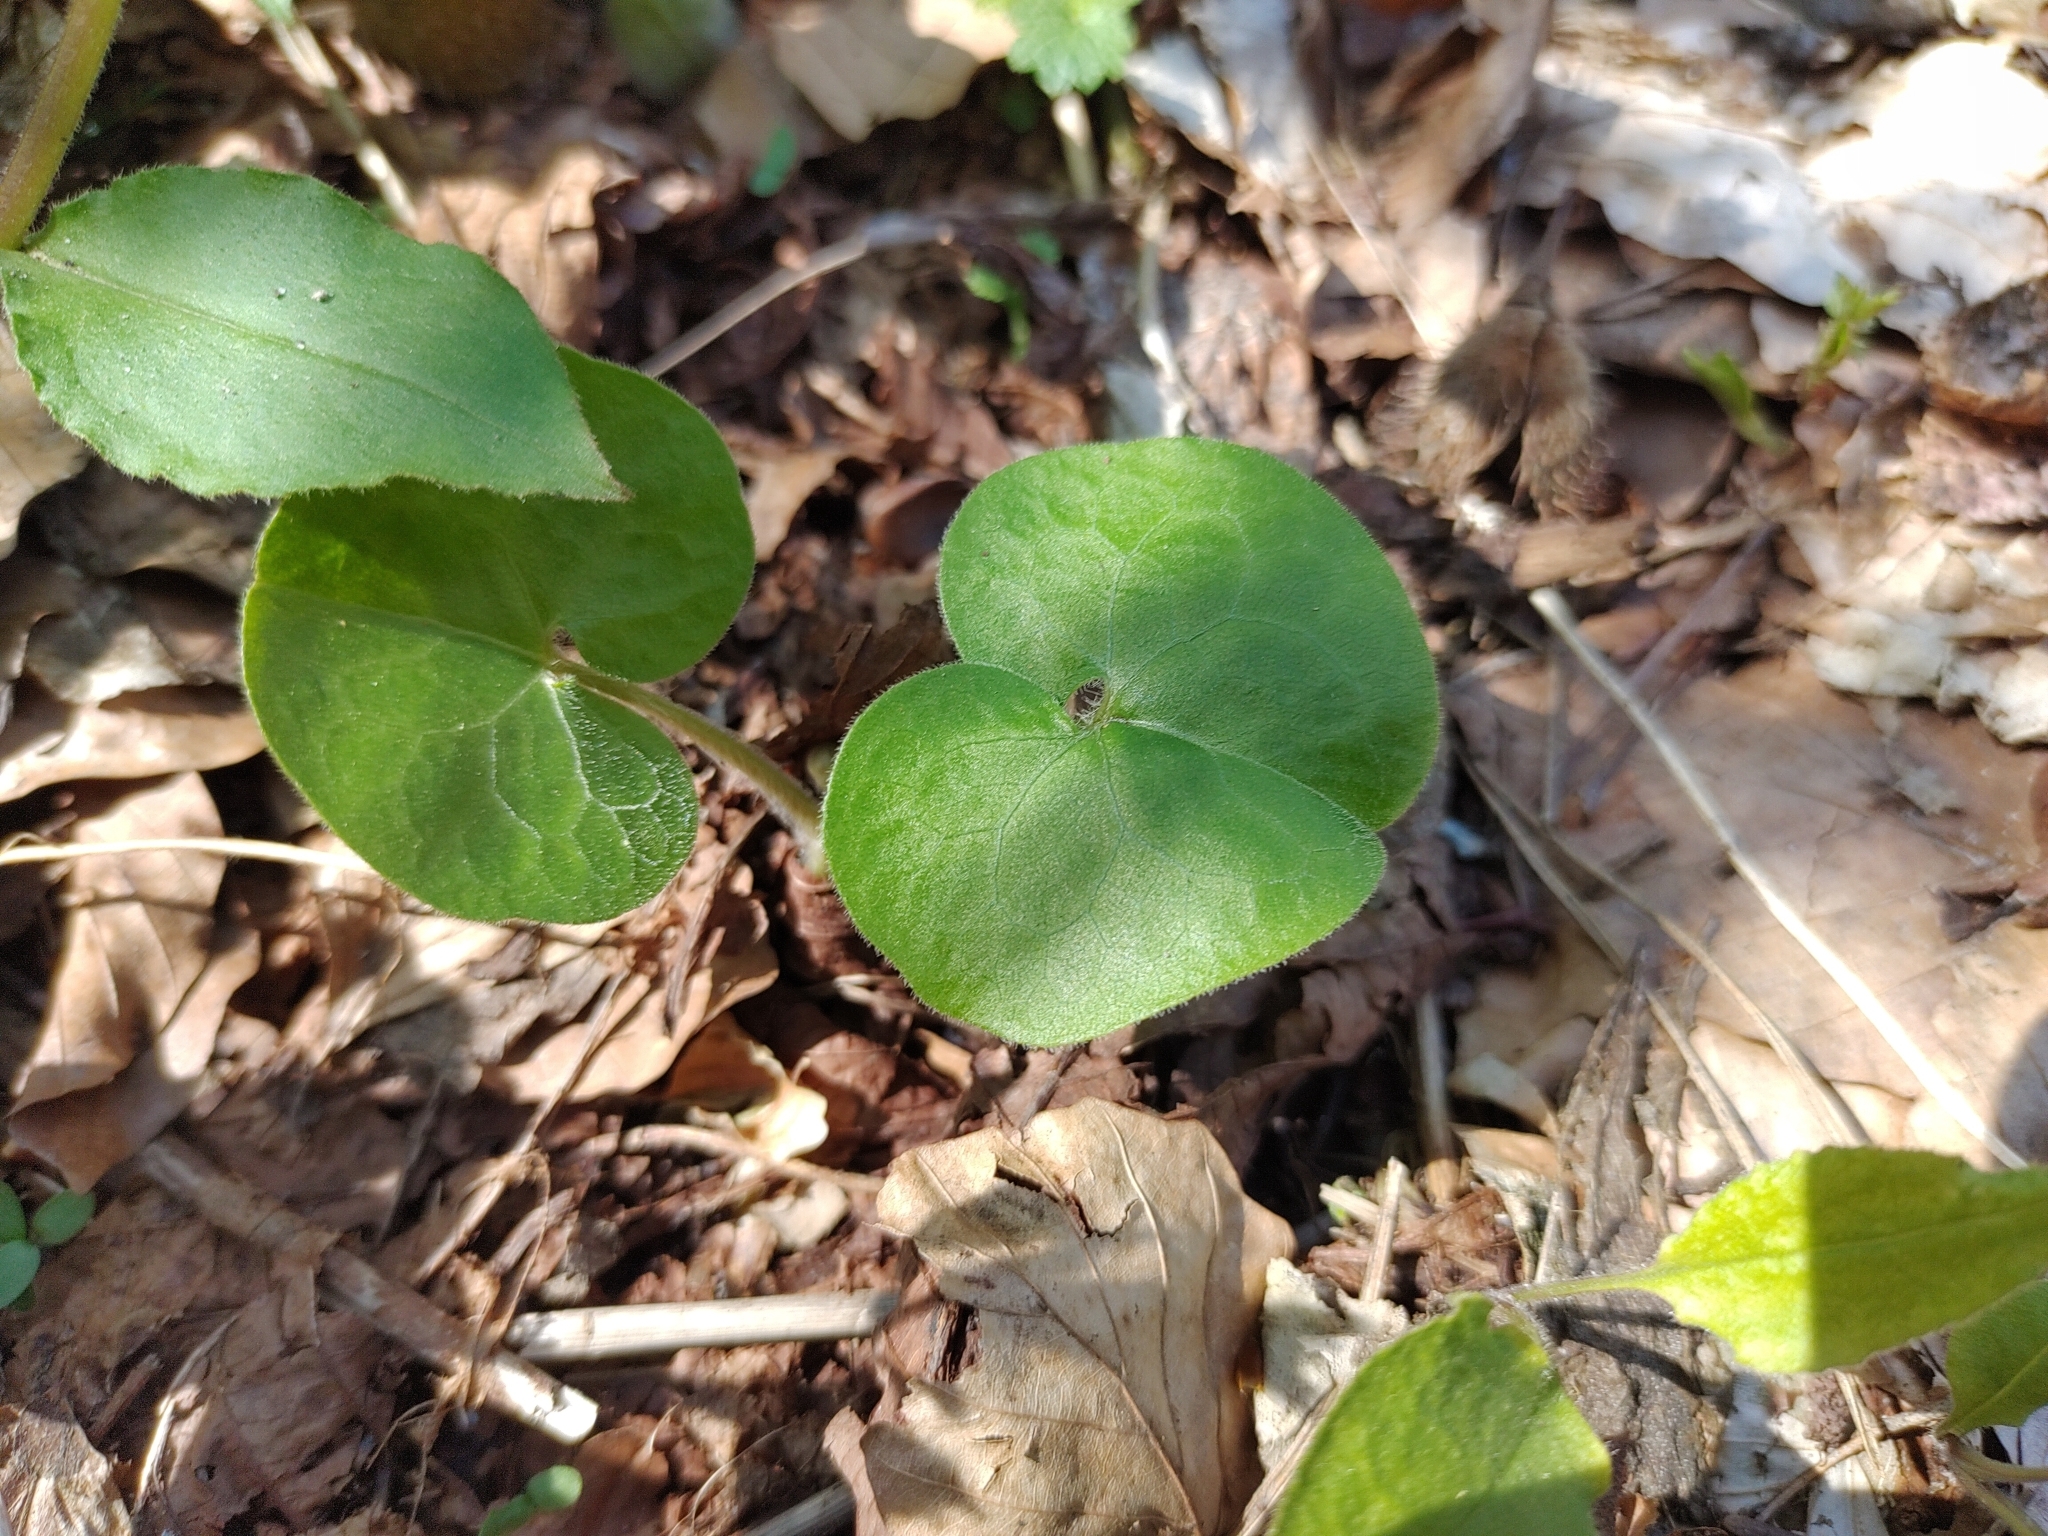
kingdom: Plantae
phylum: Tracheophyta
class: Magnoliopsida
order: Piperales
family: Aristolochiaceae
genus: Asarum
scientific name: Asarum europaeum
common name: Asarabacca
